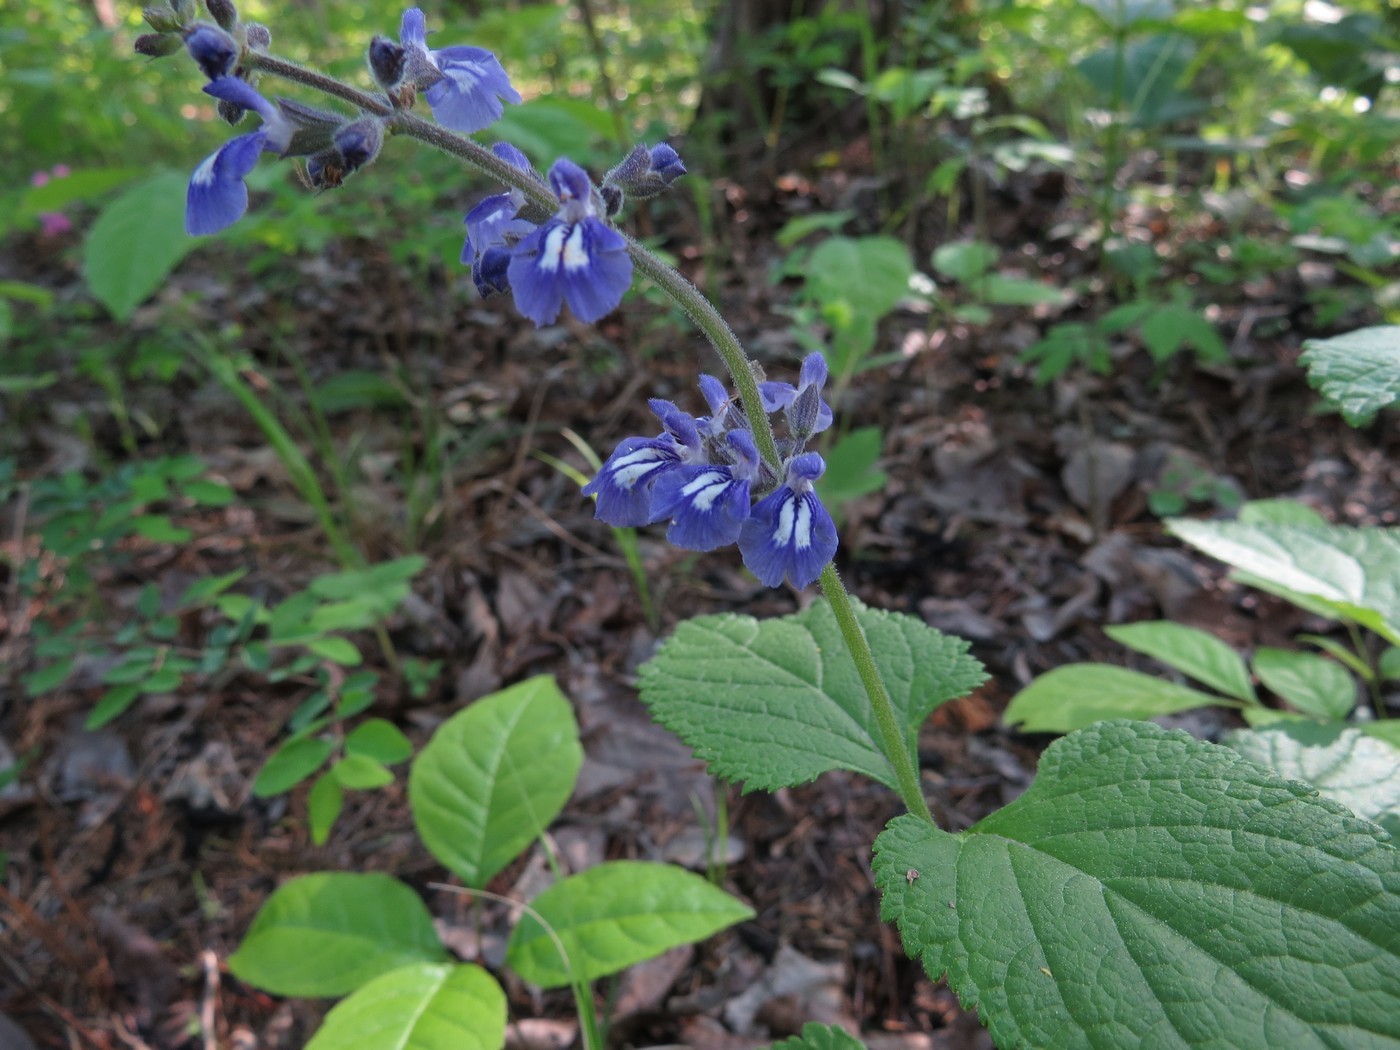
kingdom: Plantae
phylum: Tracheophyta
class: Magnoliopsida
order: Lamiales
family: Lamiaceae
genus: Salvia
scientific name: Salvia urticifolia
